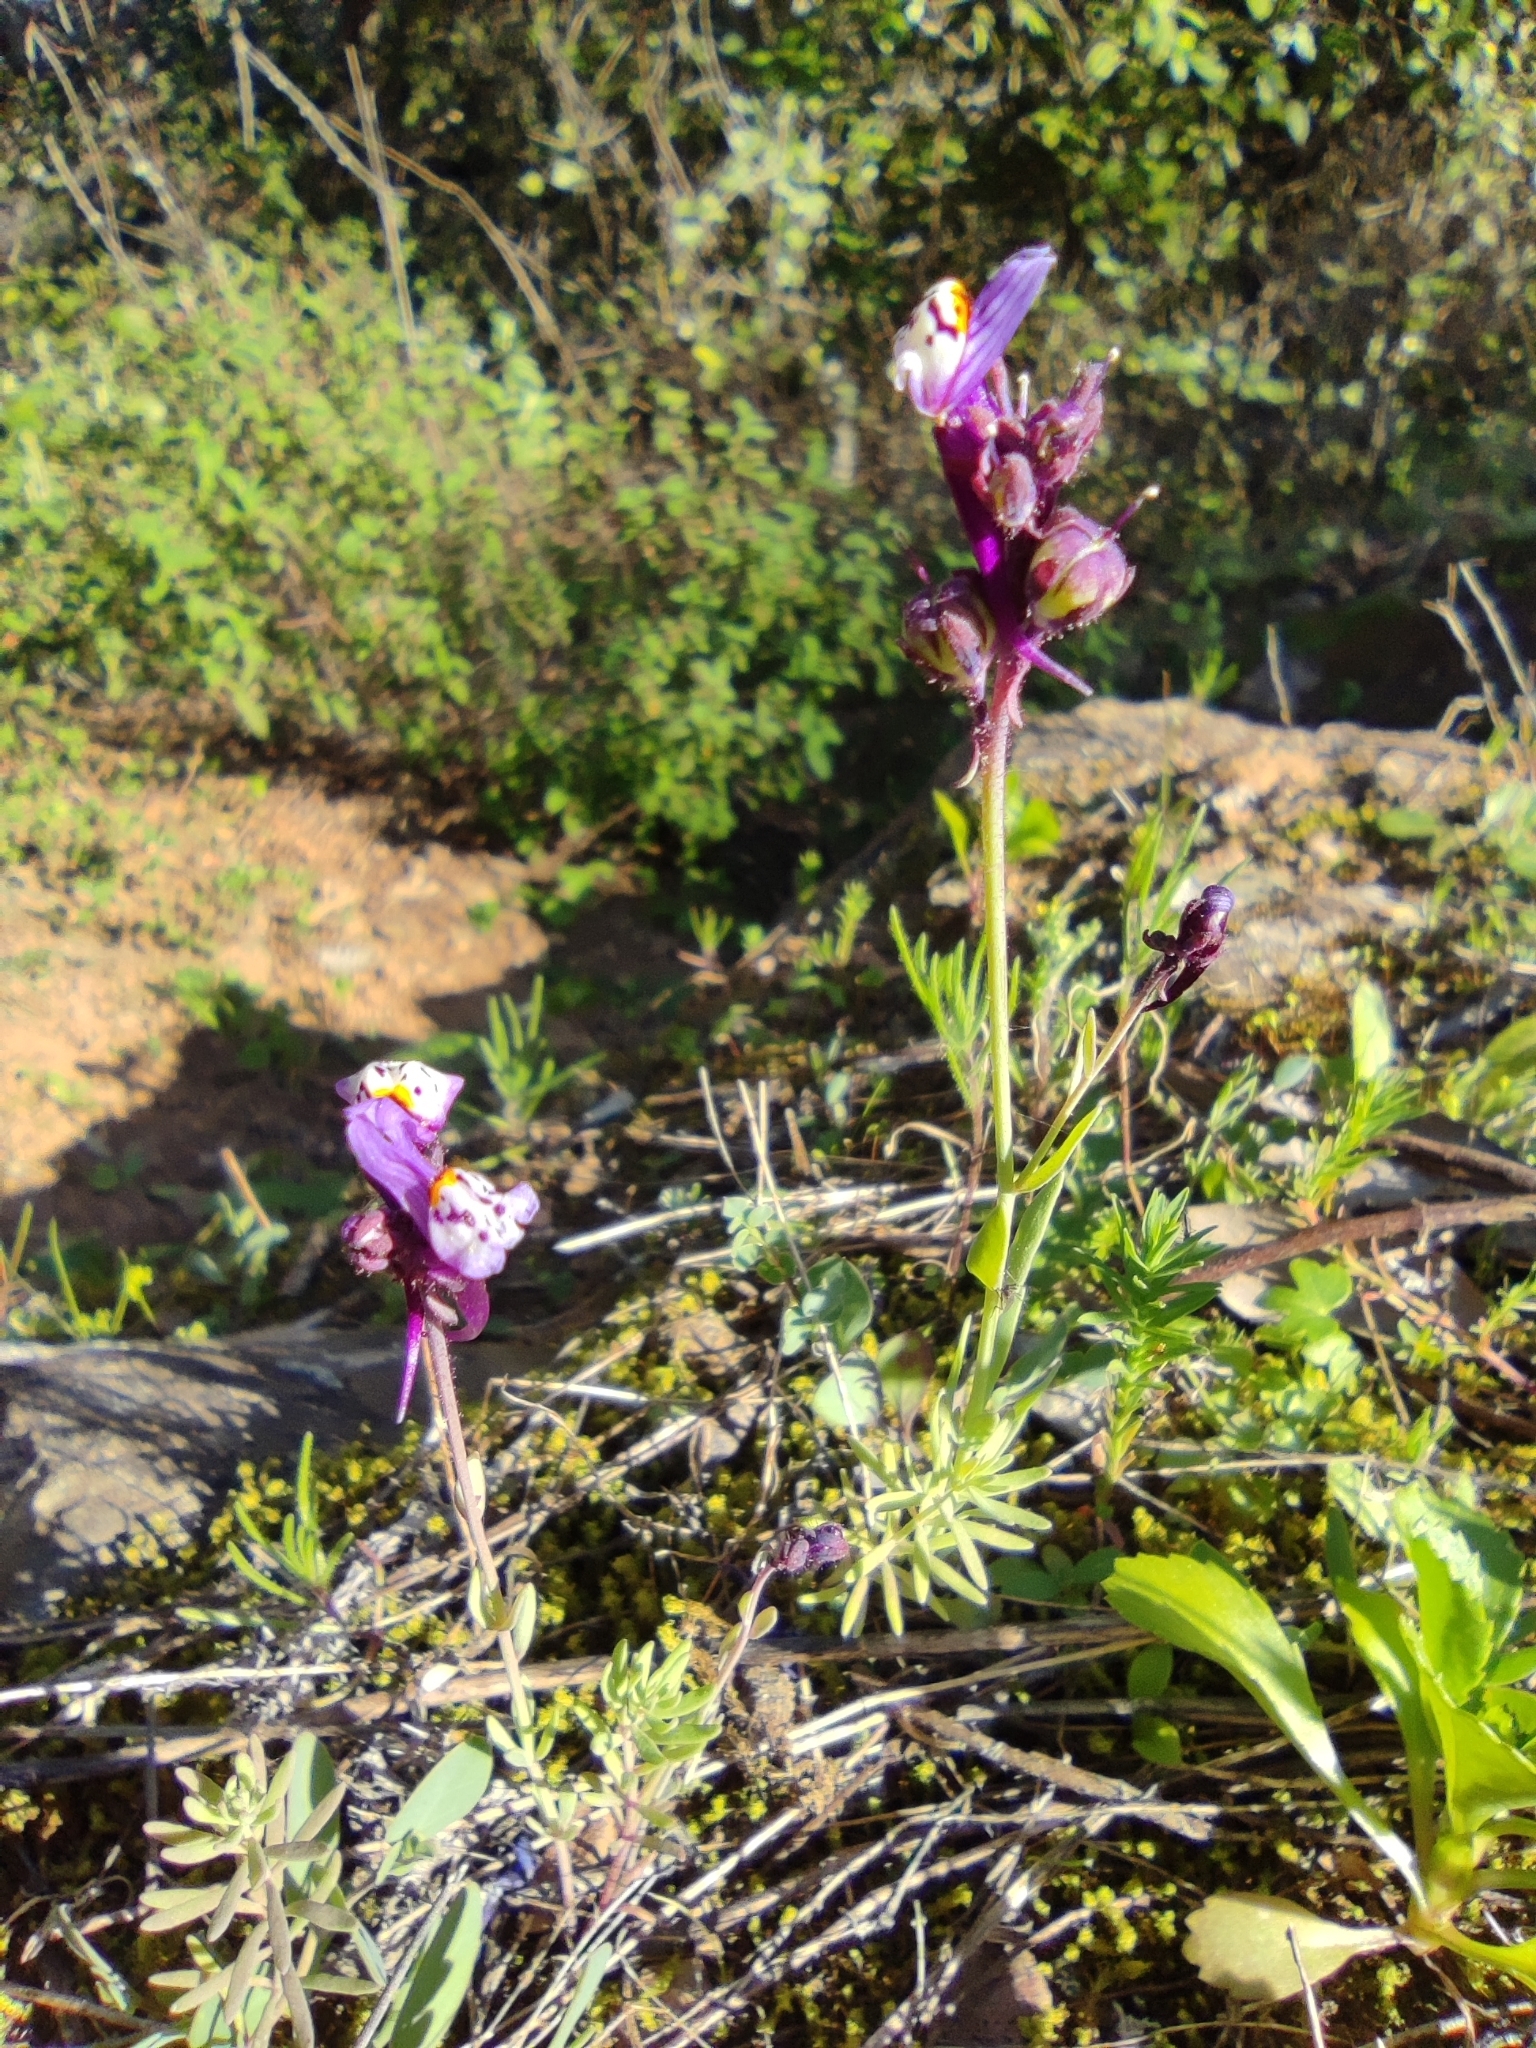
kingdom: Plantae
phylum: Tracheophyta
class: Magnoliopsida
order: Lamiales
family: Plantaginaceae
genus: Linaria
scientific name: Linaria amethystea
